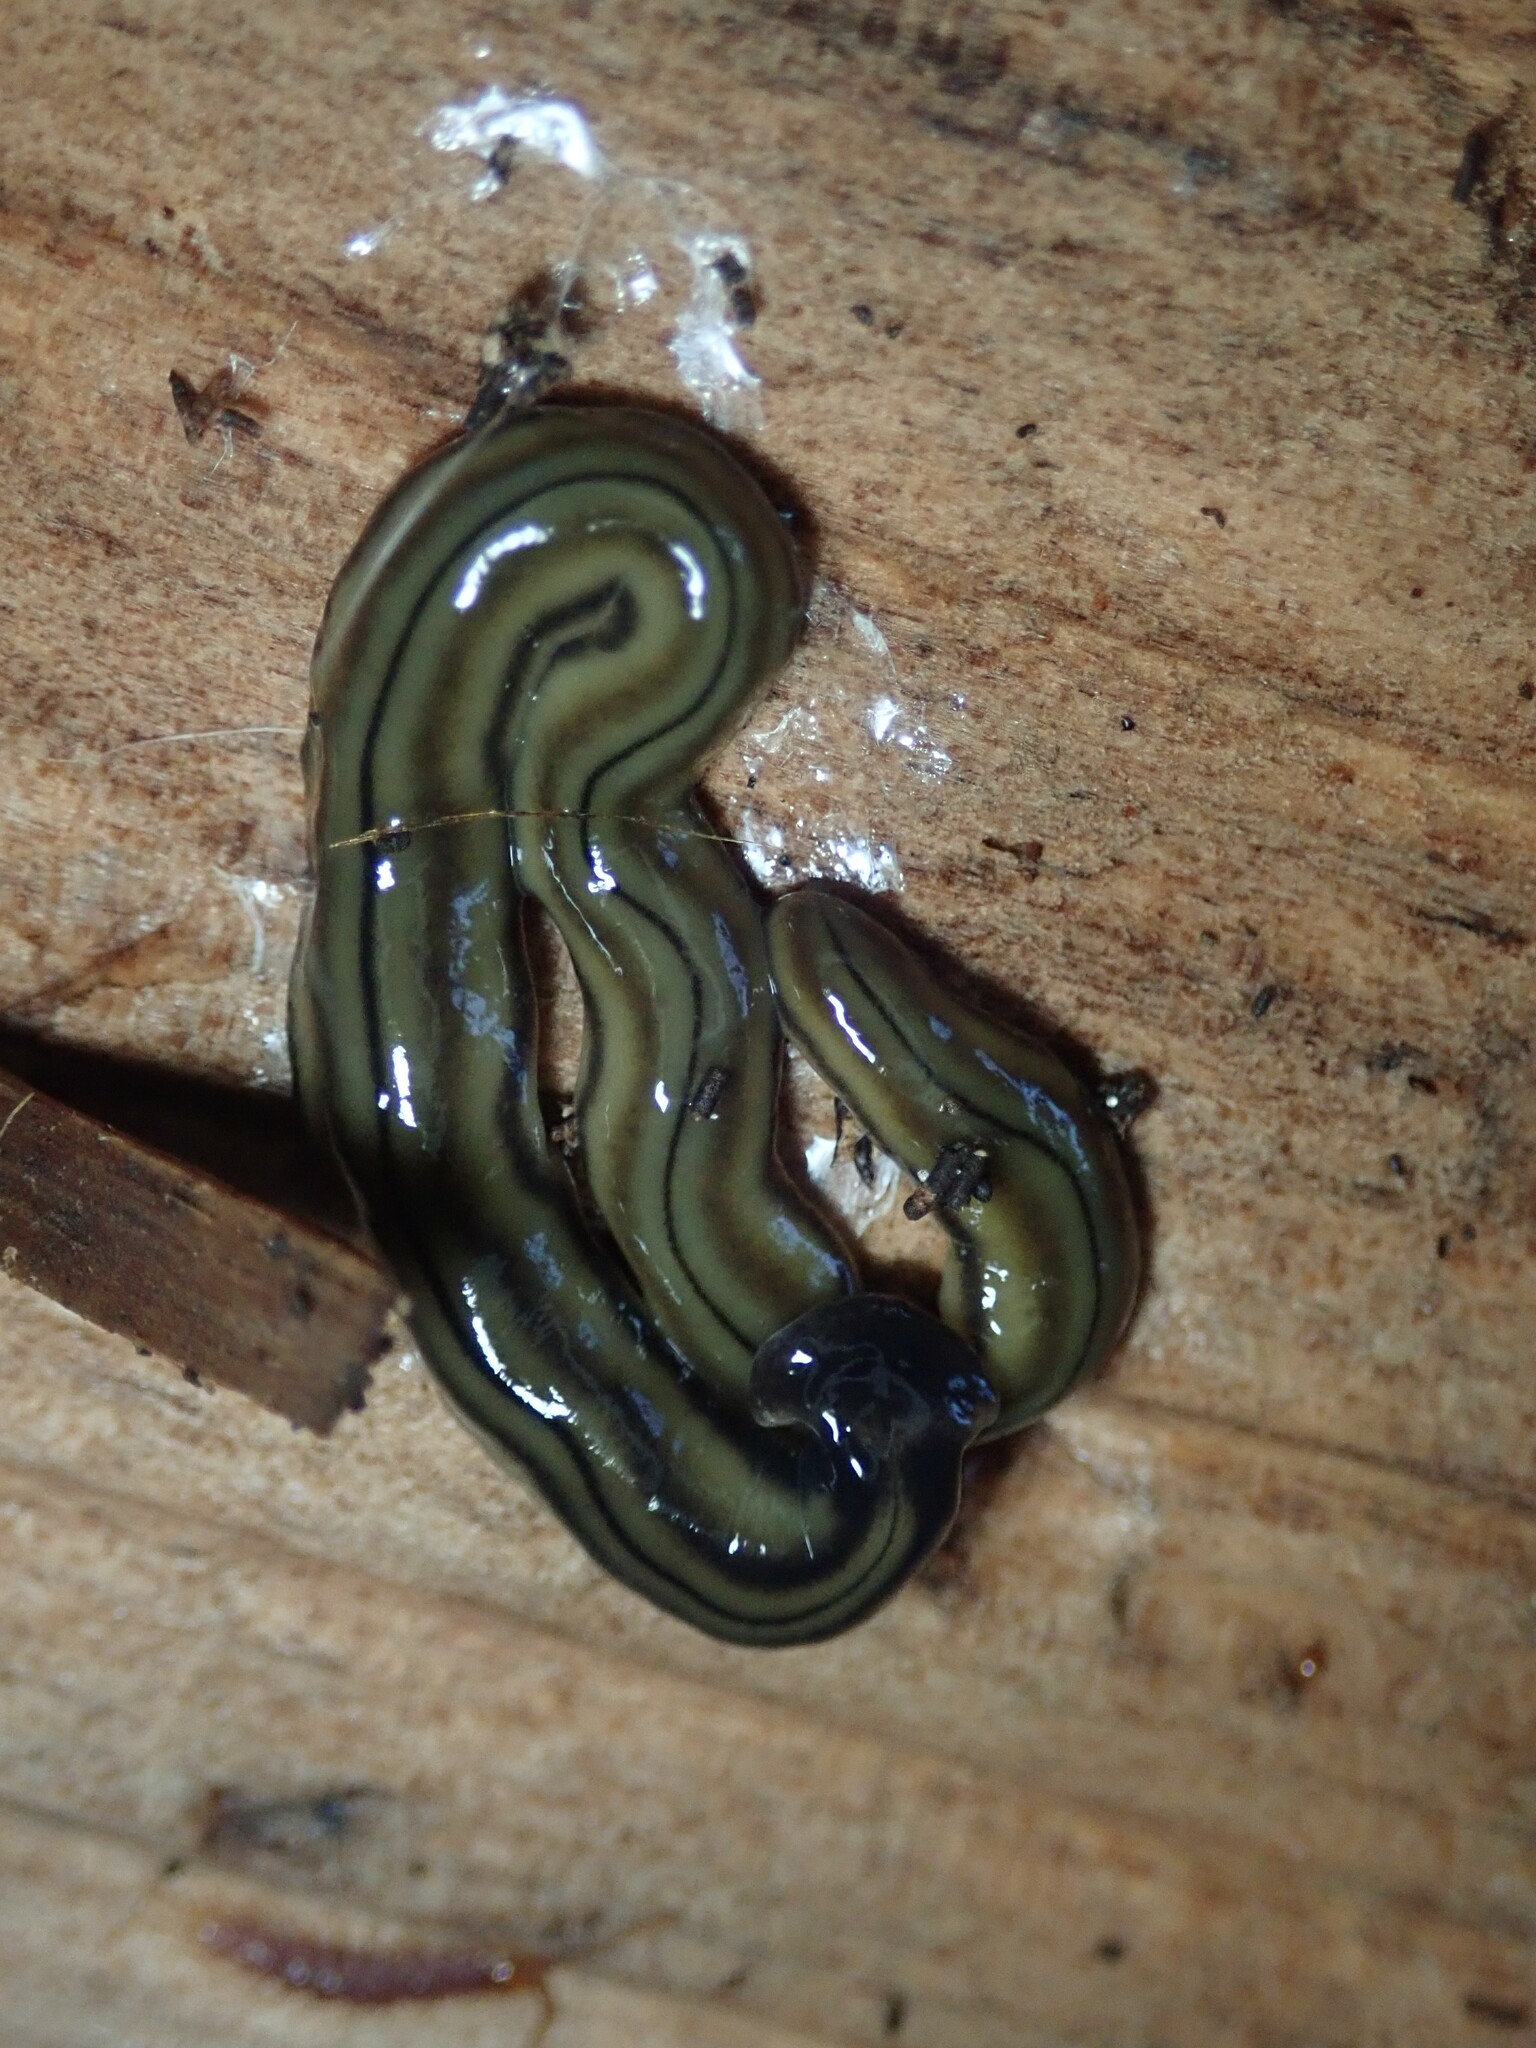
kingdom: Animalia
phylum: Platyhelminthes
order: Tricladida
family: Geoplanidae
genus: Bipalium
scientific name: Bipalium kewense
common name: Hammerhead flatworm
